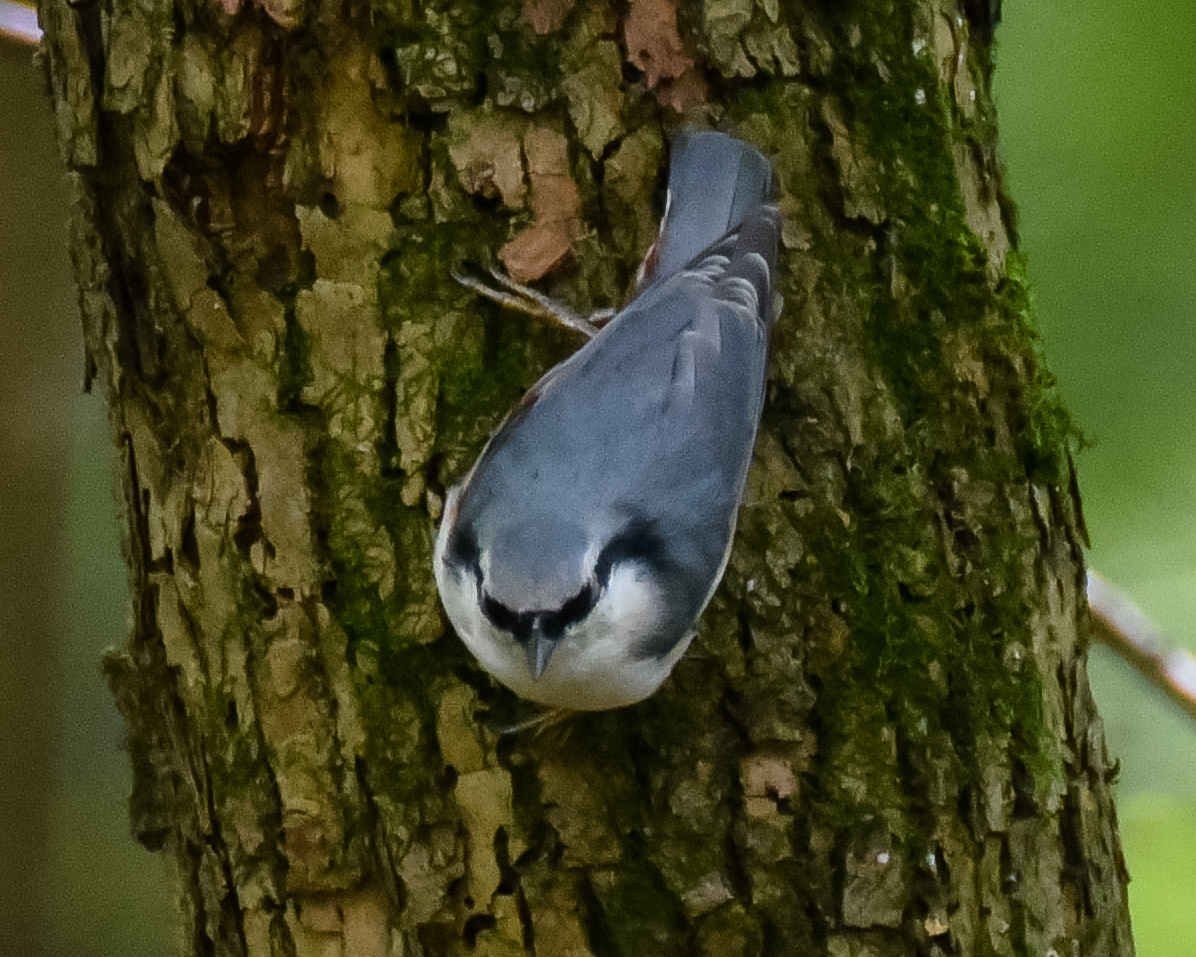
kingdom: Animalia
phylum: Chordata
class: Aves
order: Passeriformes
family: Sittidae
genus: Sitta
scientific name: Sitta europaea
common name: Eurasian nuthatch
